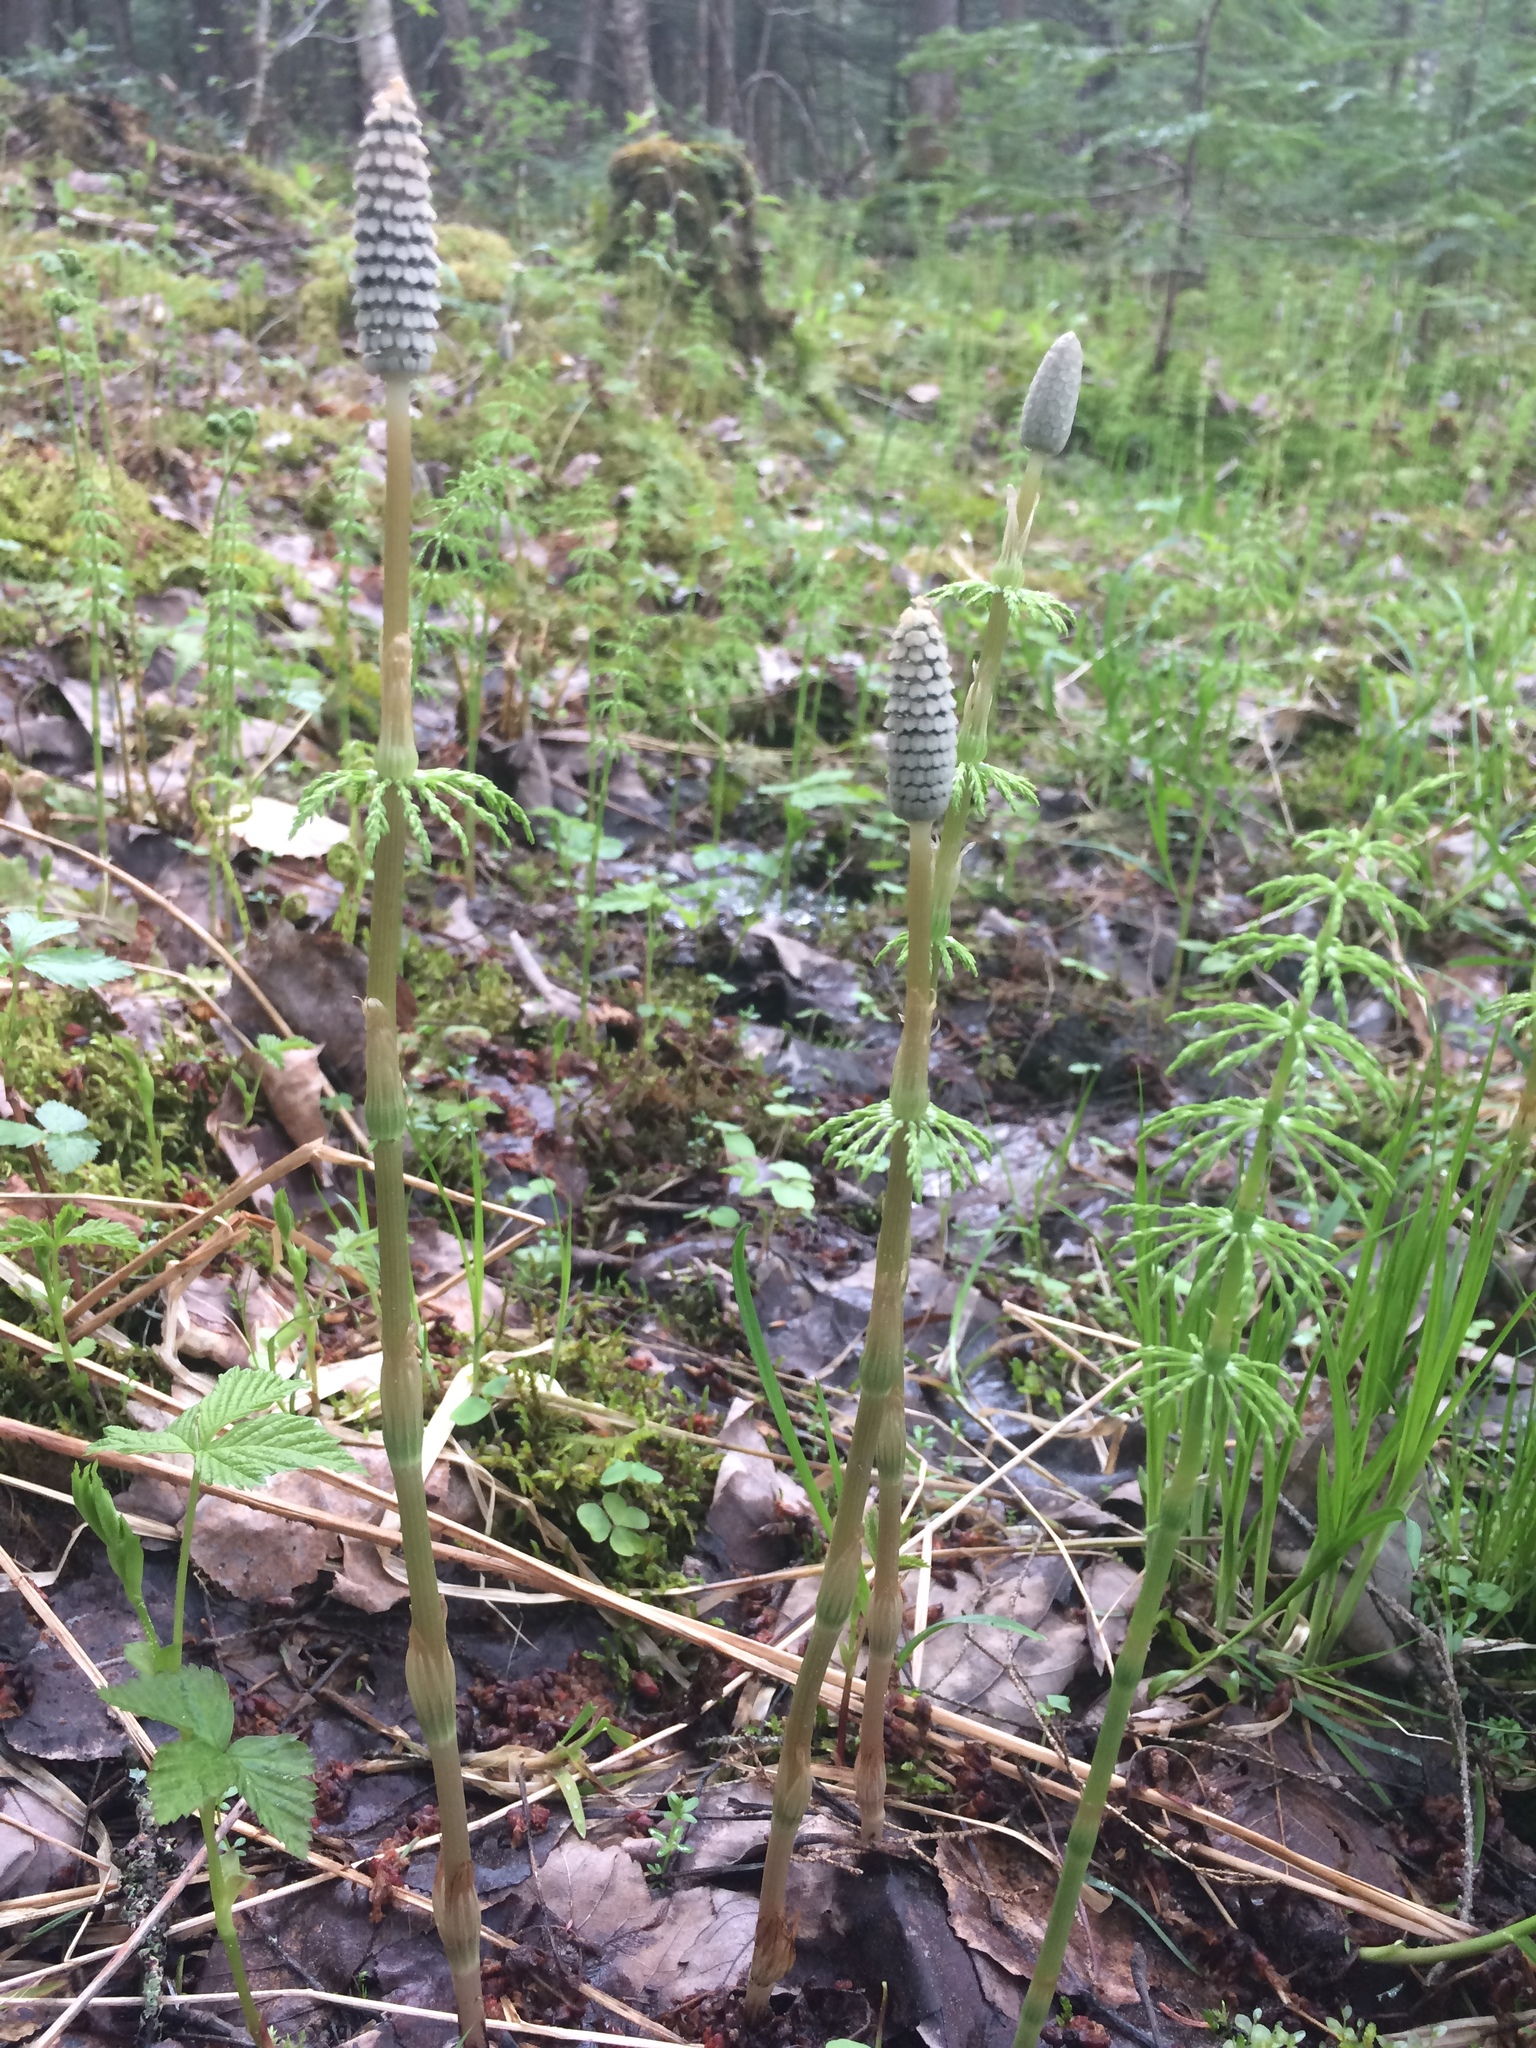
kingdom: Plantae
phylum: Tracheophyta
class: Polypodiopsida
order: Equisetales
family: Equisetaceae
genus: Equisetum
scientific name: Equisetum sylvaticum
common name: Wood horsetail
